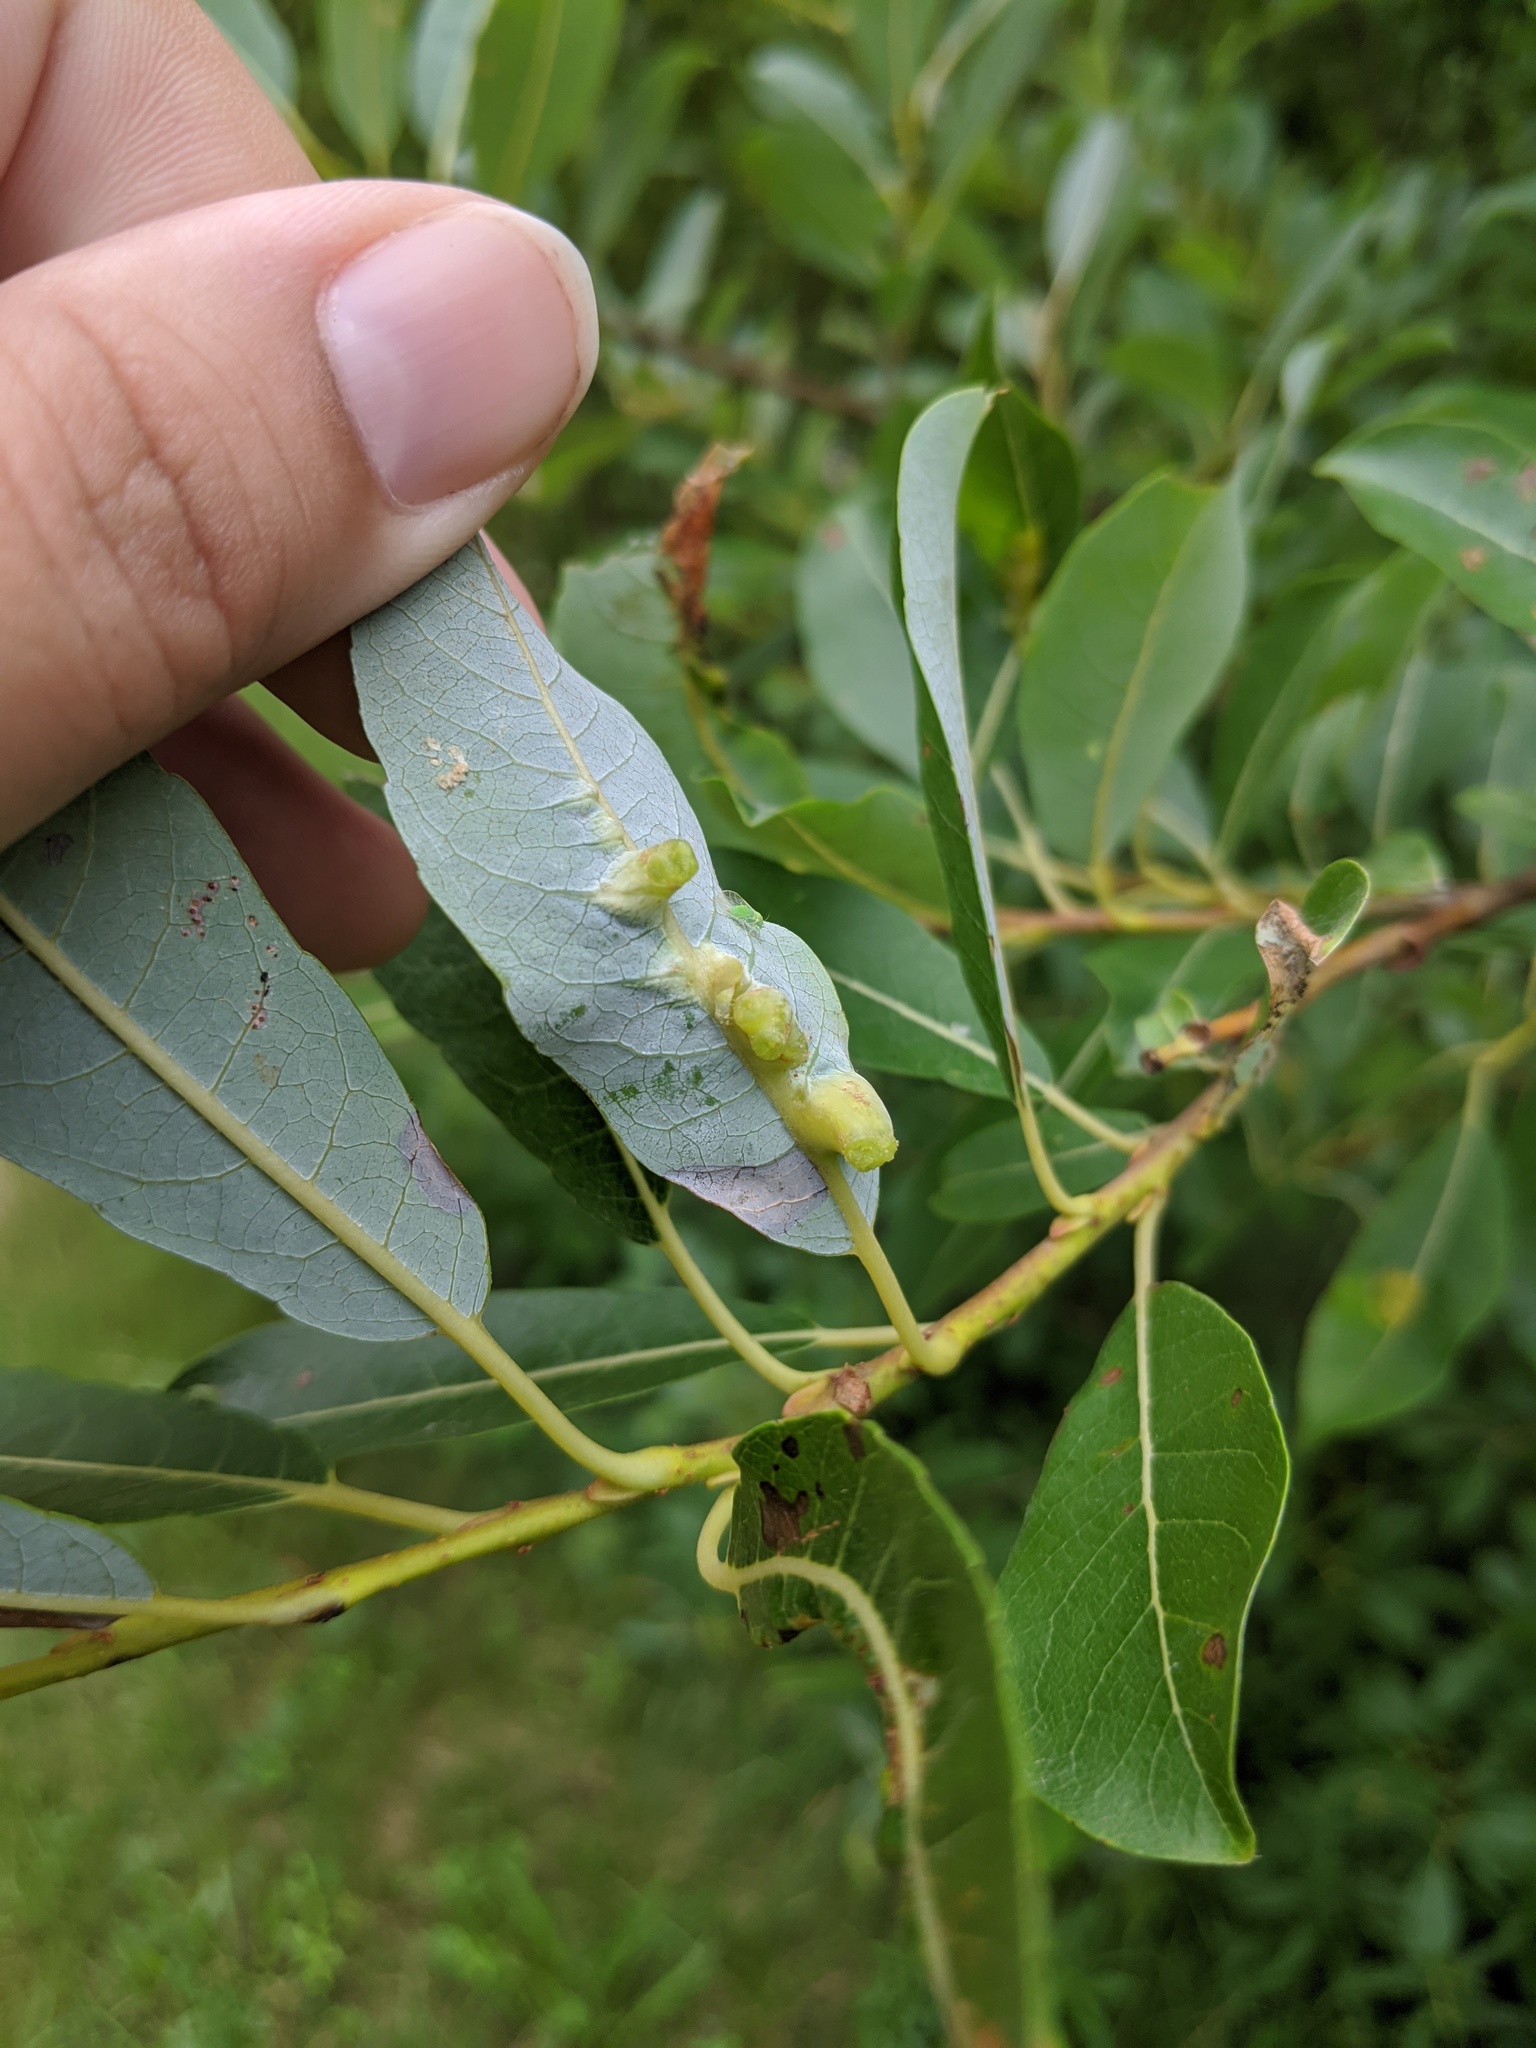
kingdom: Animalia
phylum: Arthropoda
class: Insecta
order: Diptera
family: Cecidomyiidae
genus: Iteomyia
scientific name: Iteomyia salicisverruca
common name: Willow leaf gall midge
